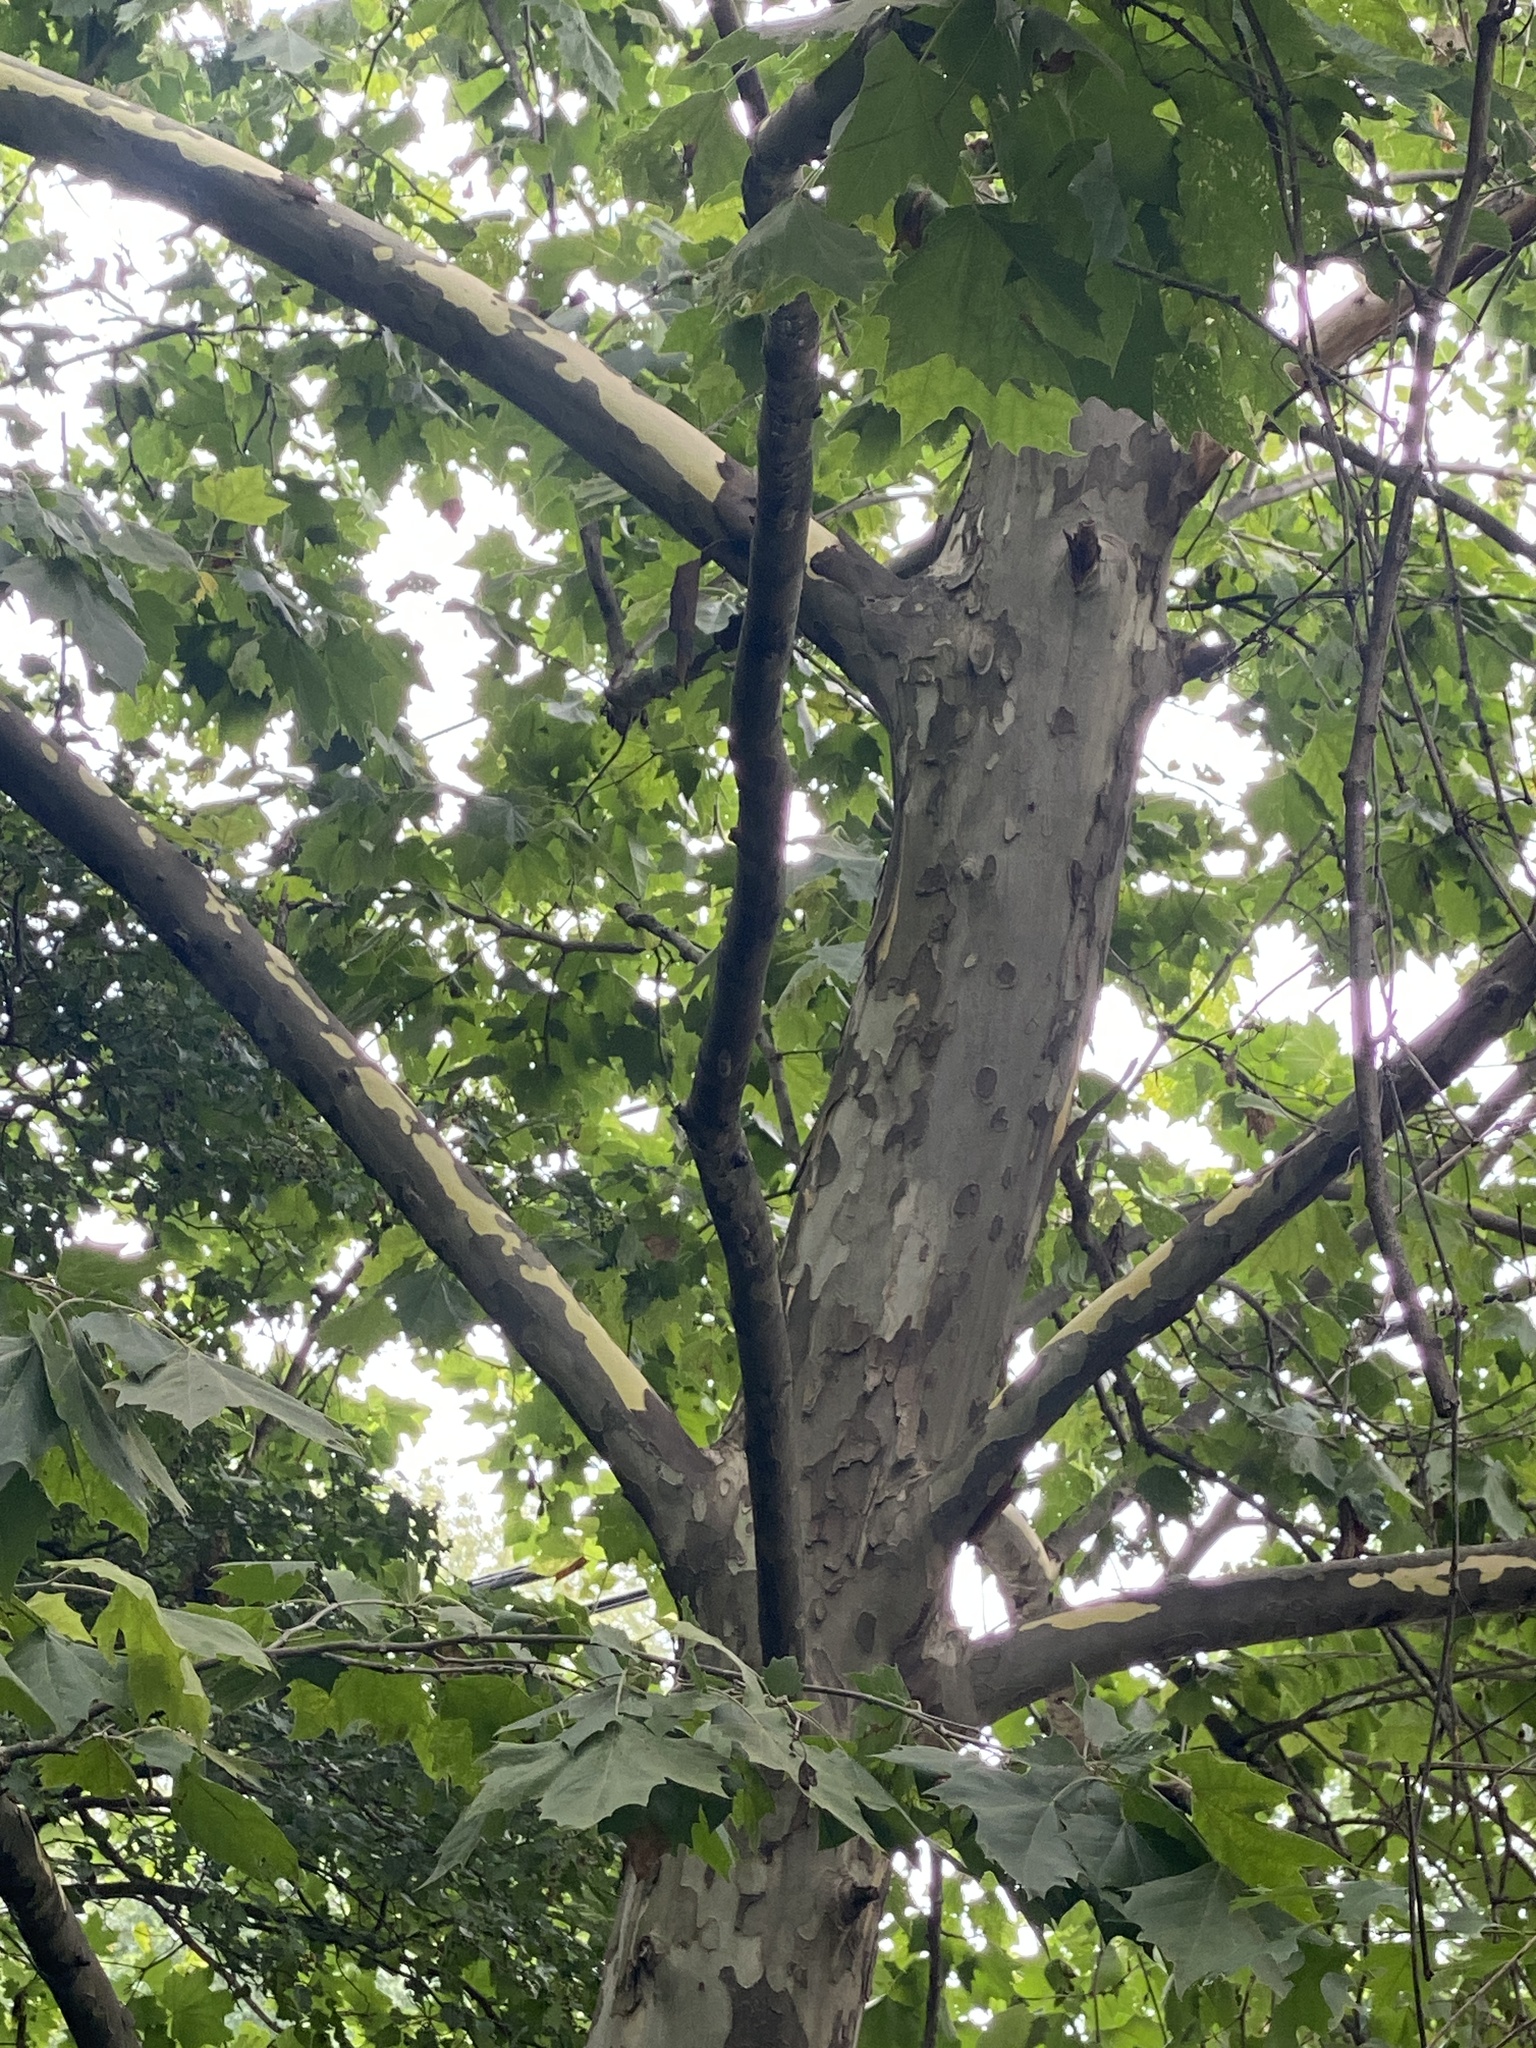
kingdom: Plantae
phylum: Tracheophyta
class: Magnoliopsida
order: Proteales
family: Platanaceae
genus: Platanus
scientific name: Platanus occidentalis
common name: American sycamore
